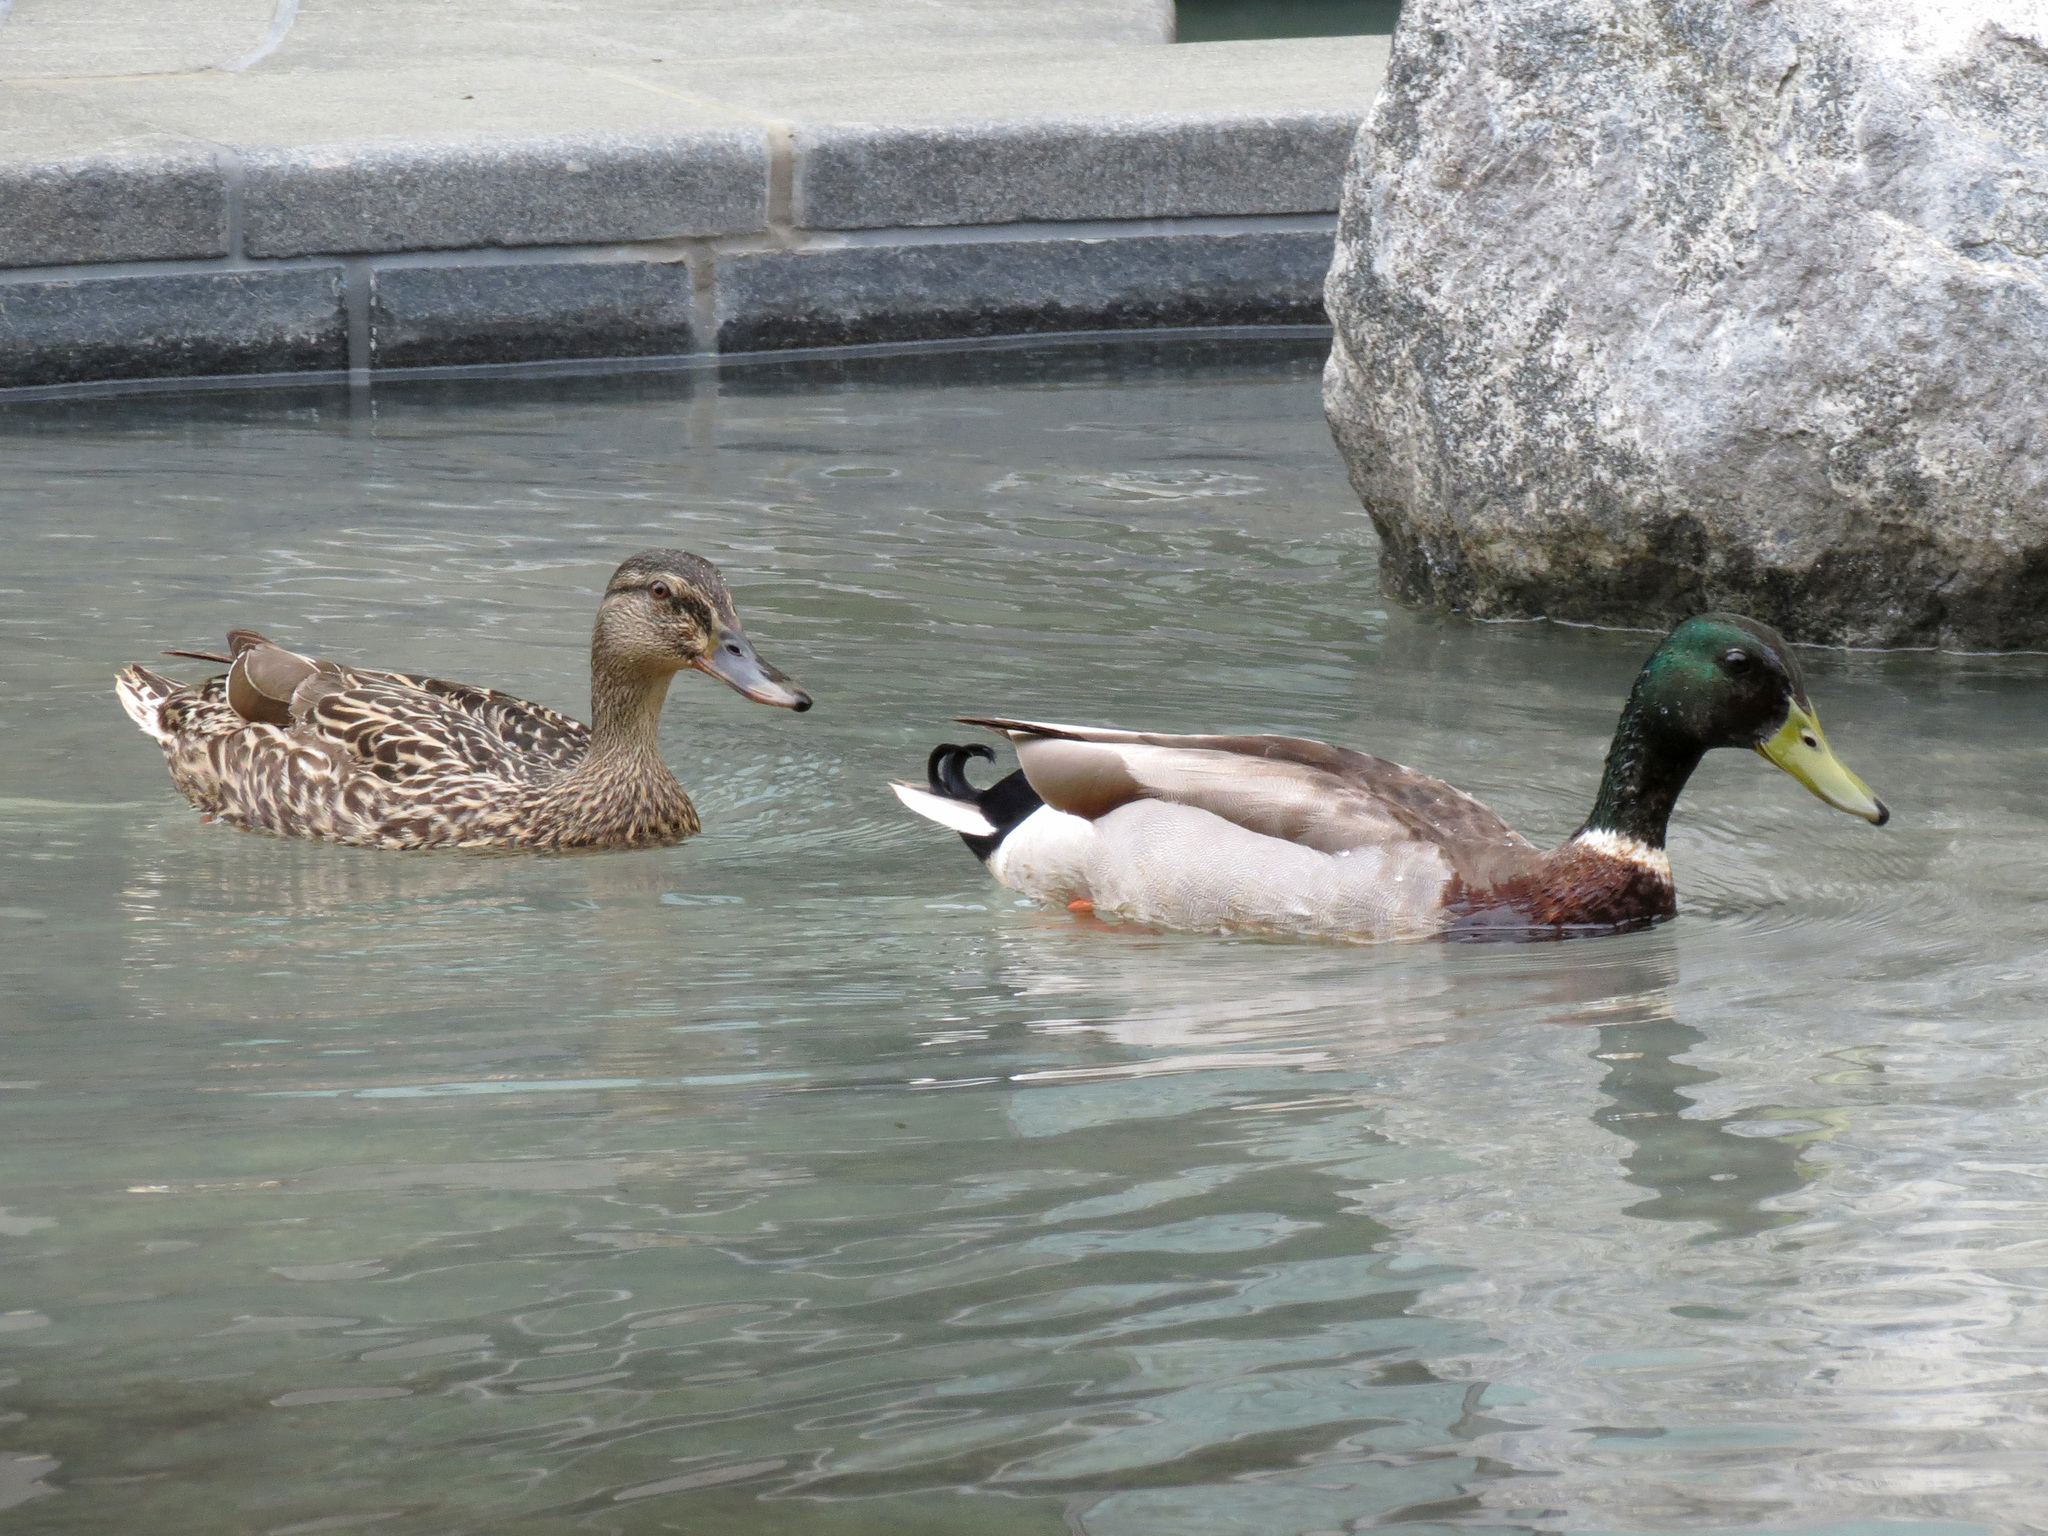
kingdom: Animalia
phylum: Chordata
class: Aves
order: Anseriformes
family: Anatidae
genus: Anas
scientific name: Anas platyrhynchos
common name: Mallard
